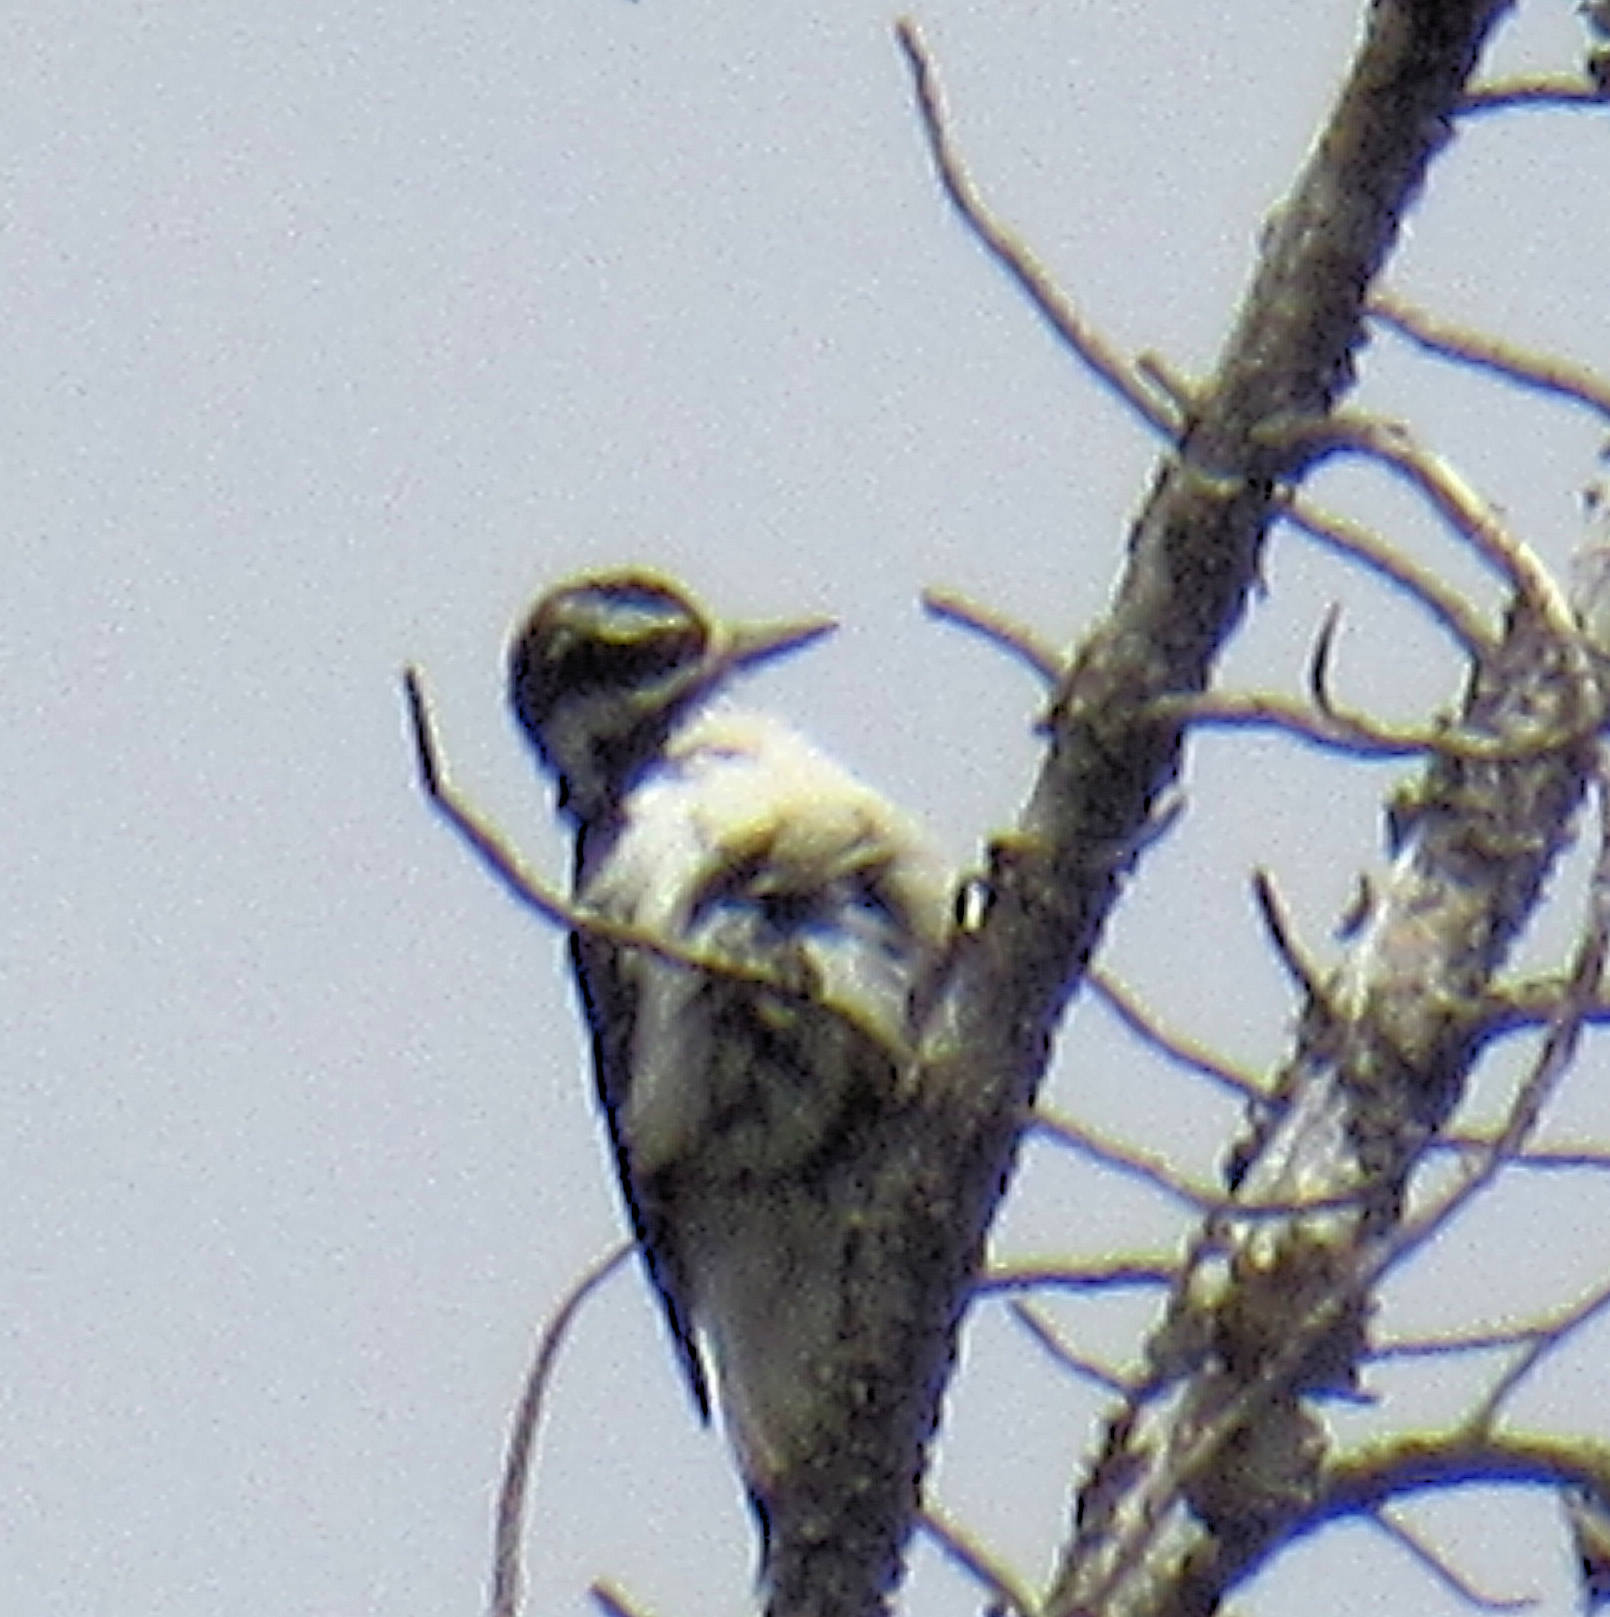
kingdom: Animalia
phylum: Chordata
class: Aves
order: Piciformes
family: Picidae
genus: Leuconotopicus
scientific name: Leuconotopicus villosus
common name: Hairy woodpecker
